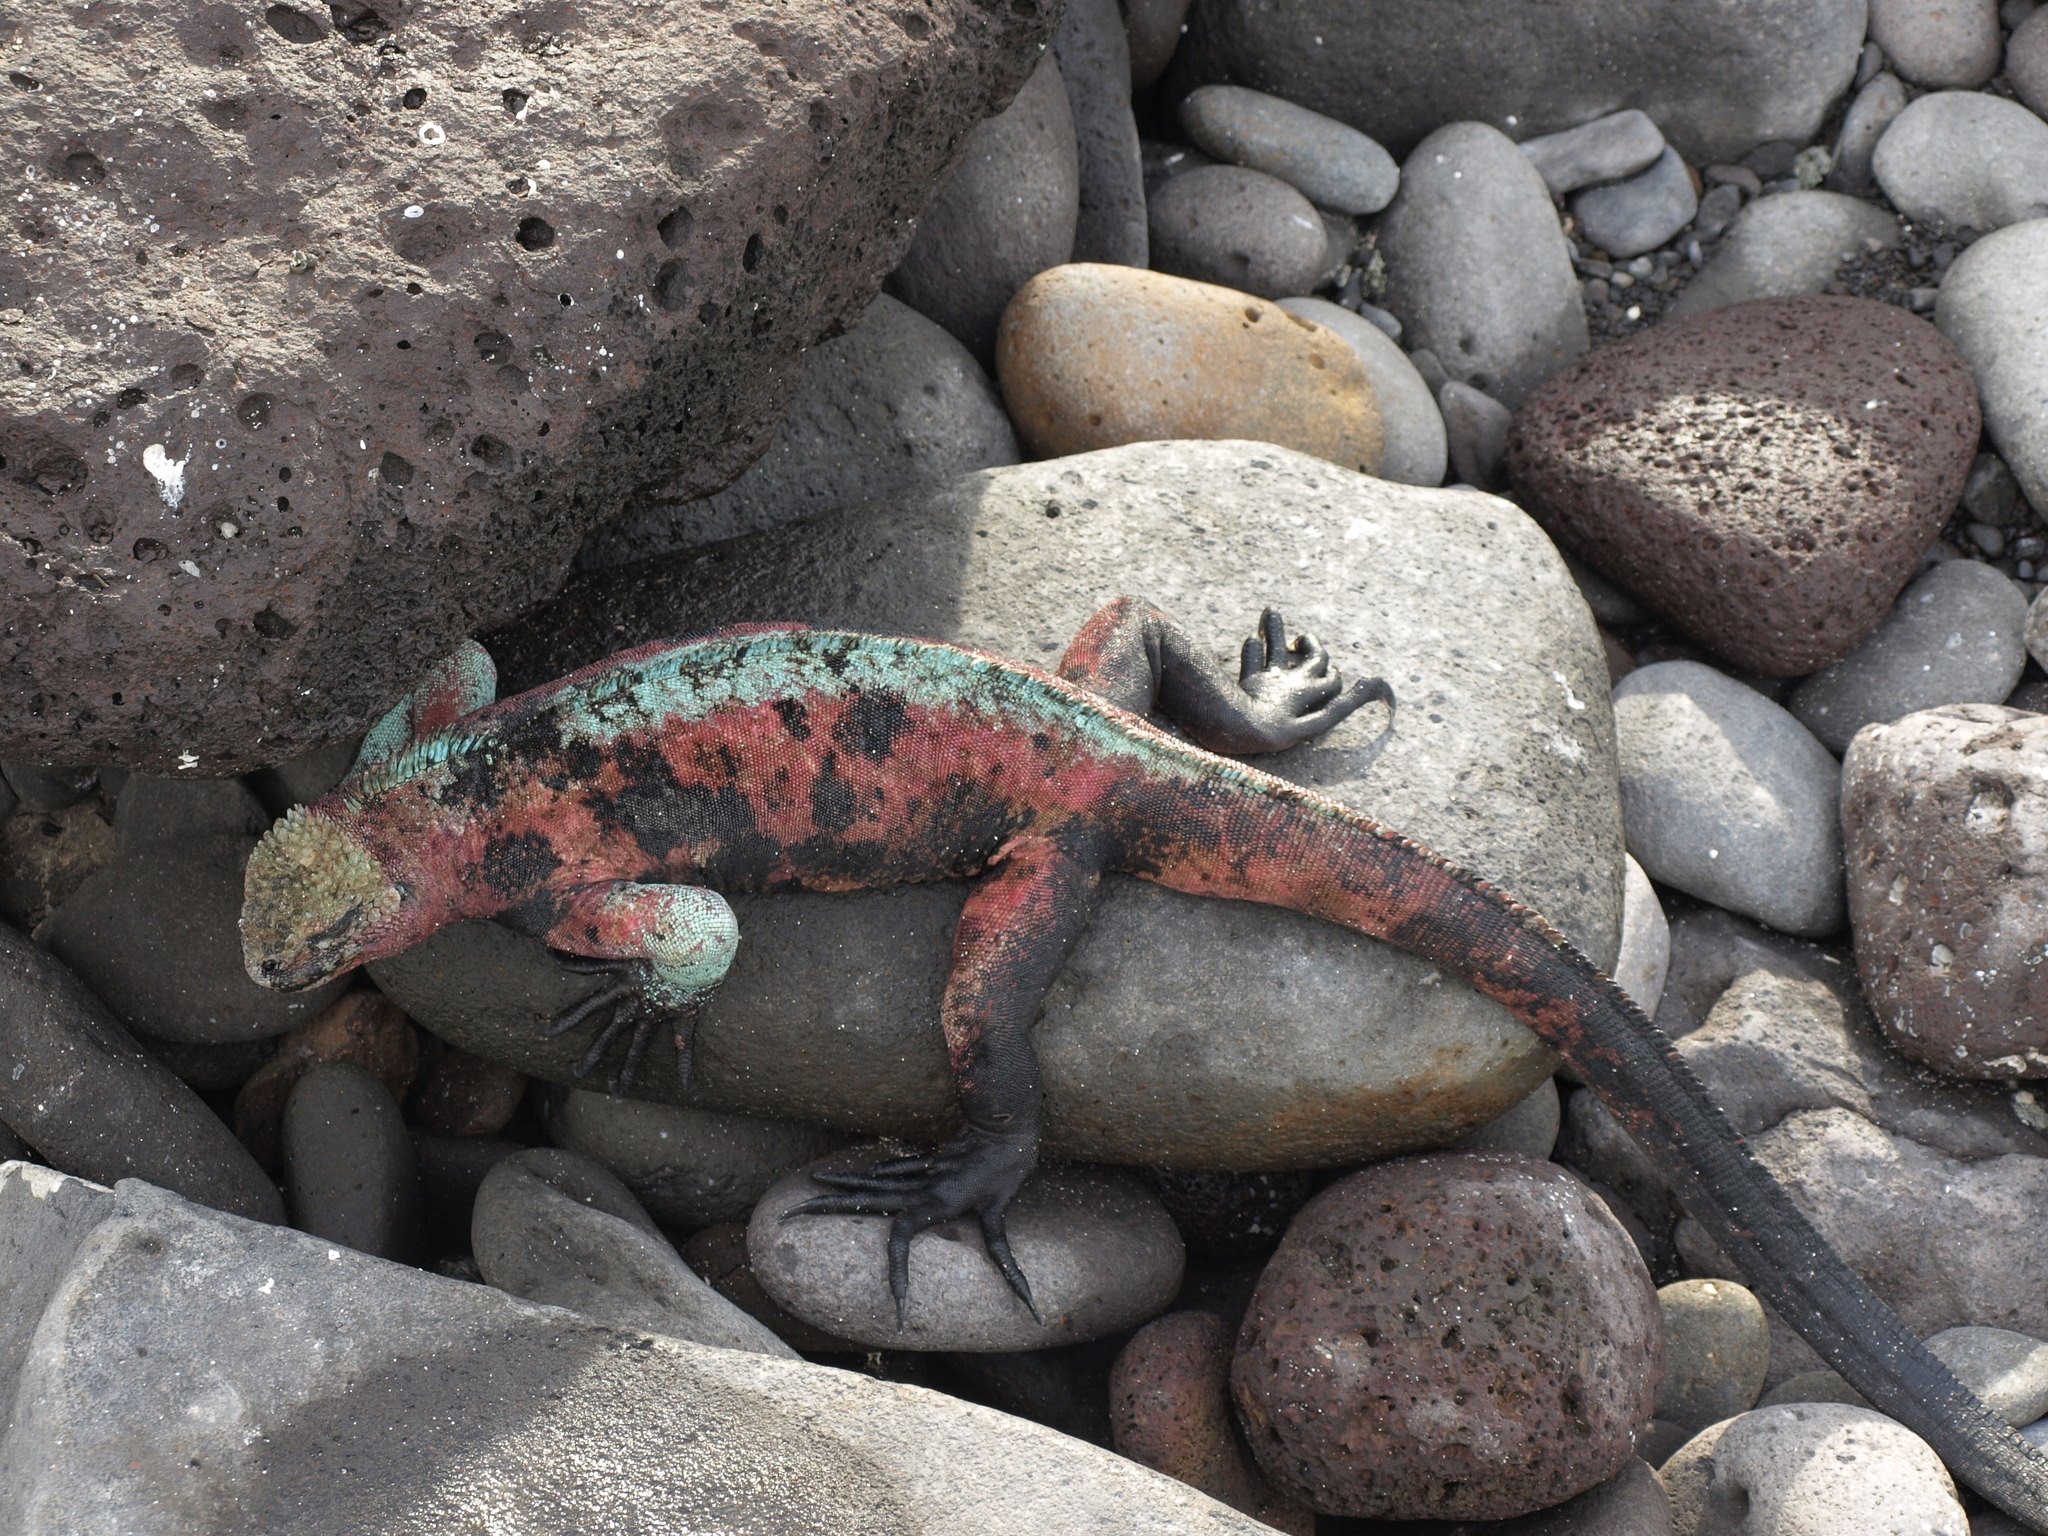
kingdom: Animalia
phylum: Chordata
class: Squamata
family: Iguanidae
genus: Amblyrhynchus
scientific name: Amblyrhynchus cristatus
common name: Marine iguana
